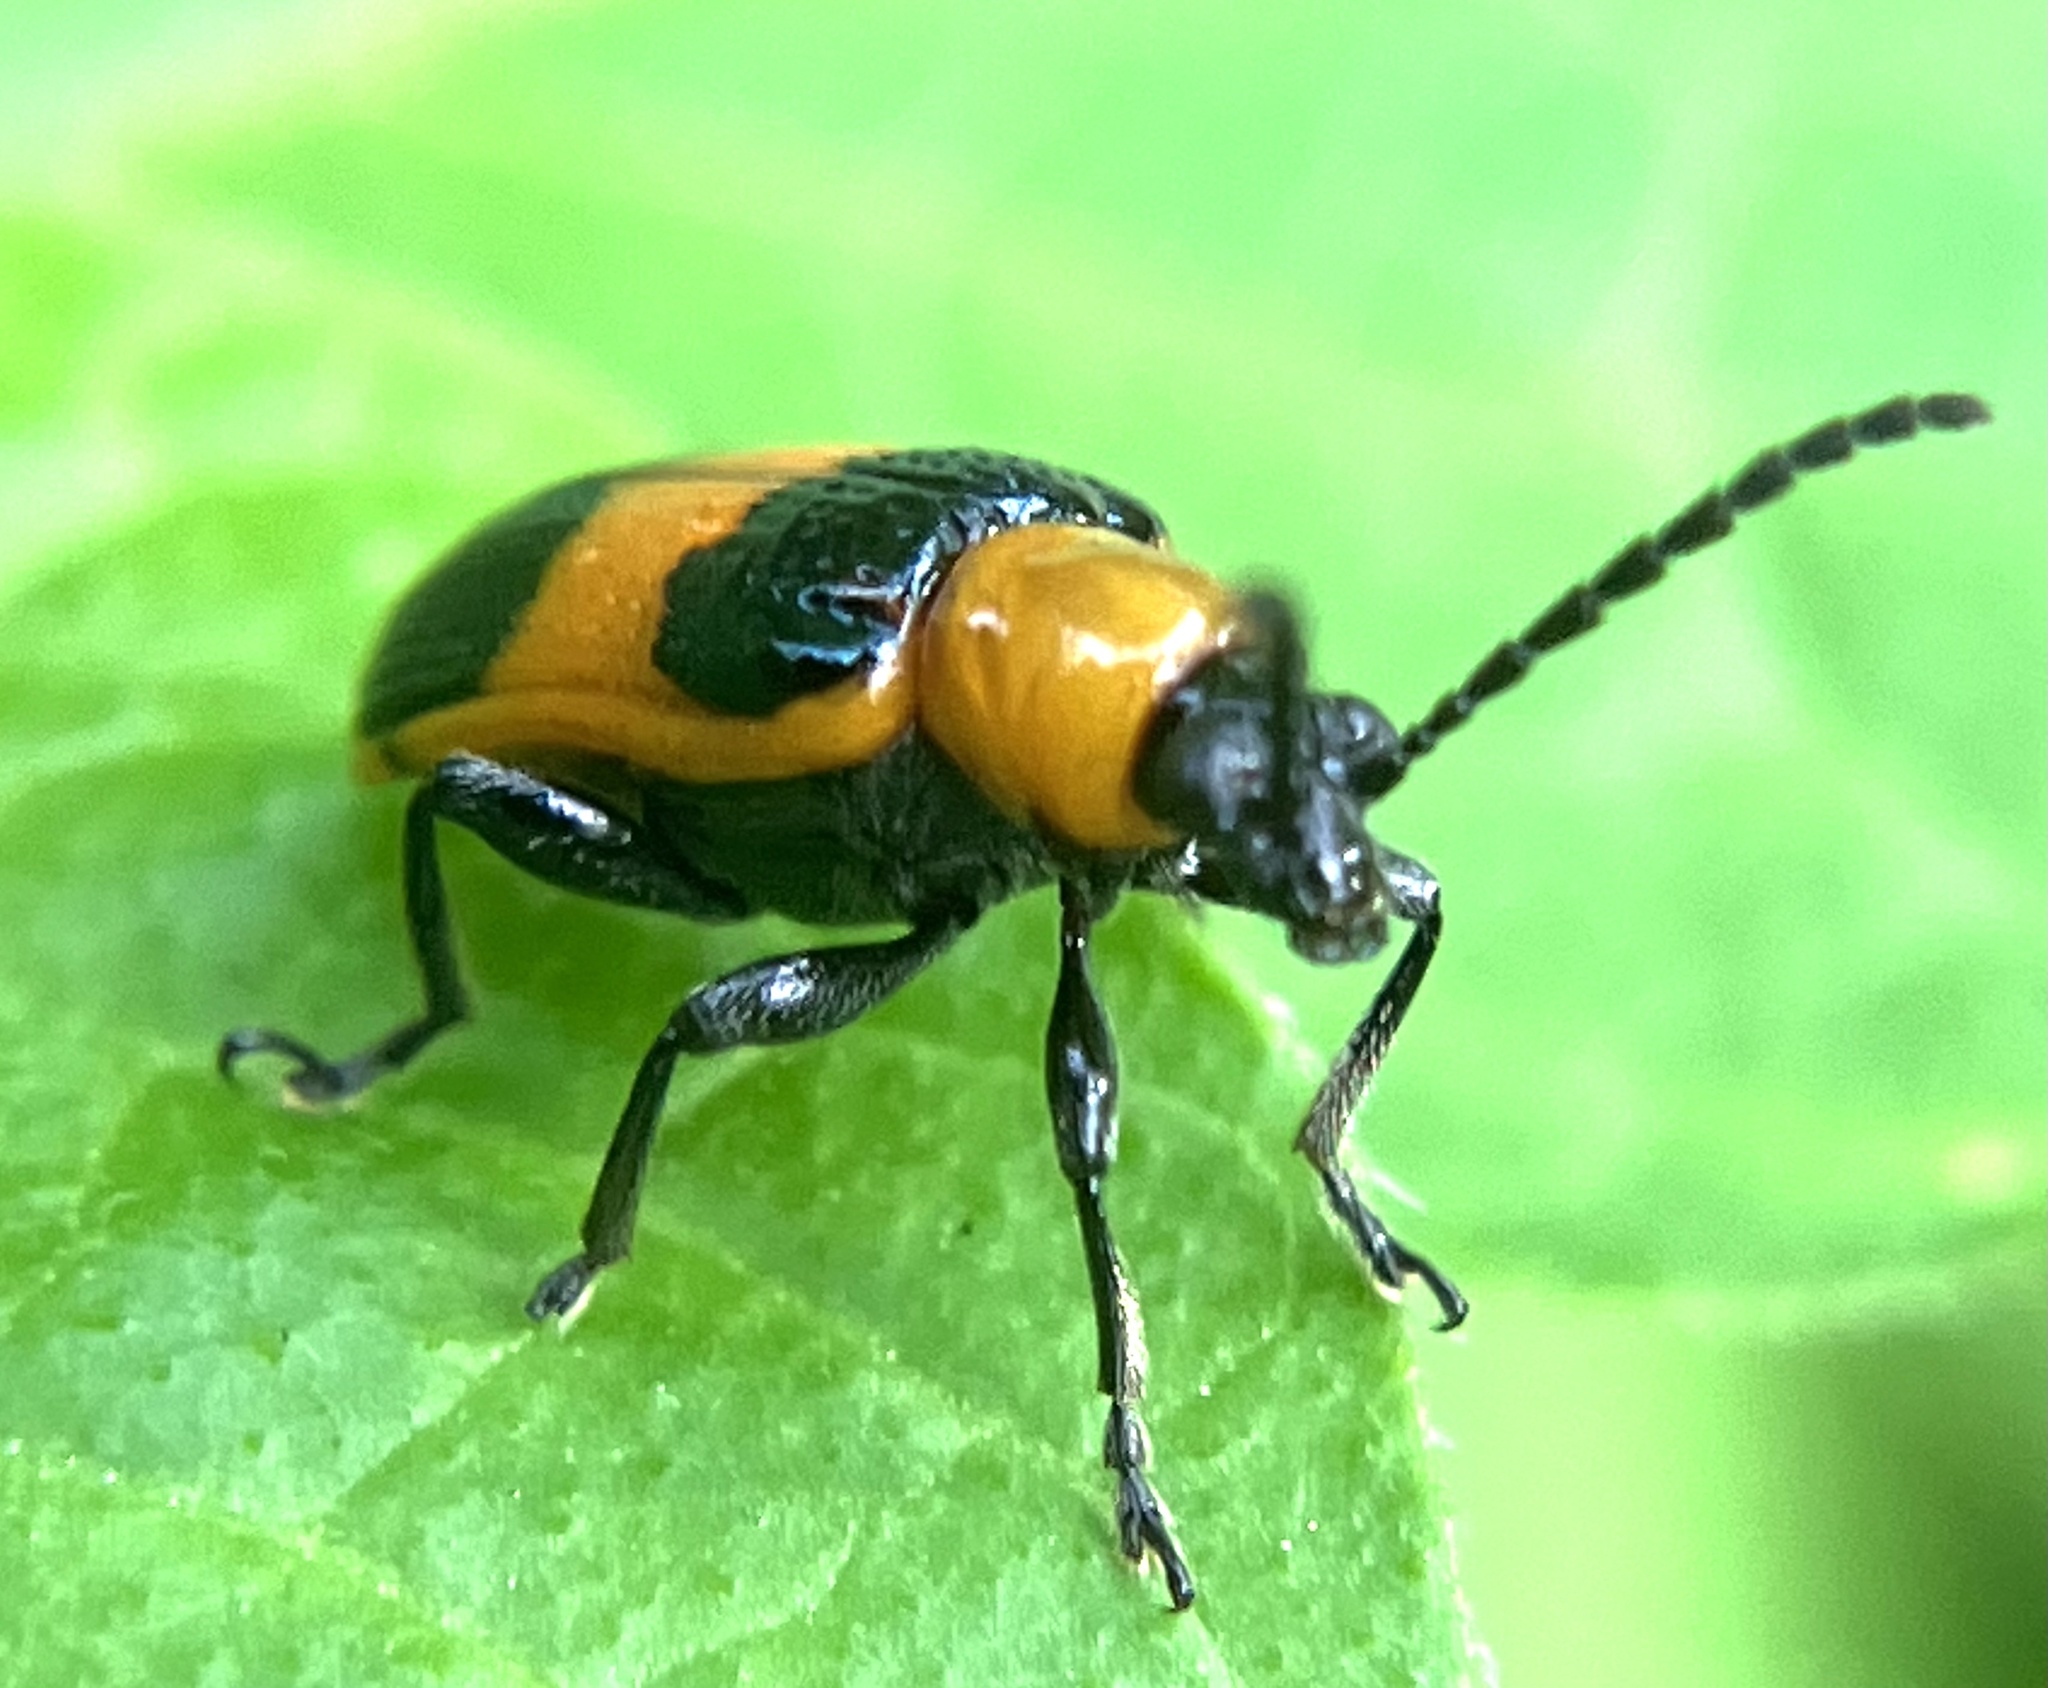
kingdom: Animalia
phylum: Arthropoda
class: Insecta
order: Coleoptera
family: Chrysomelidae
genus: Lema
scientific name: Lema solani
